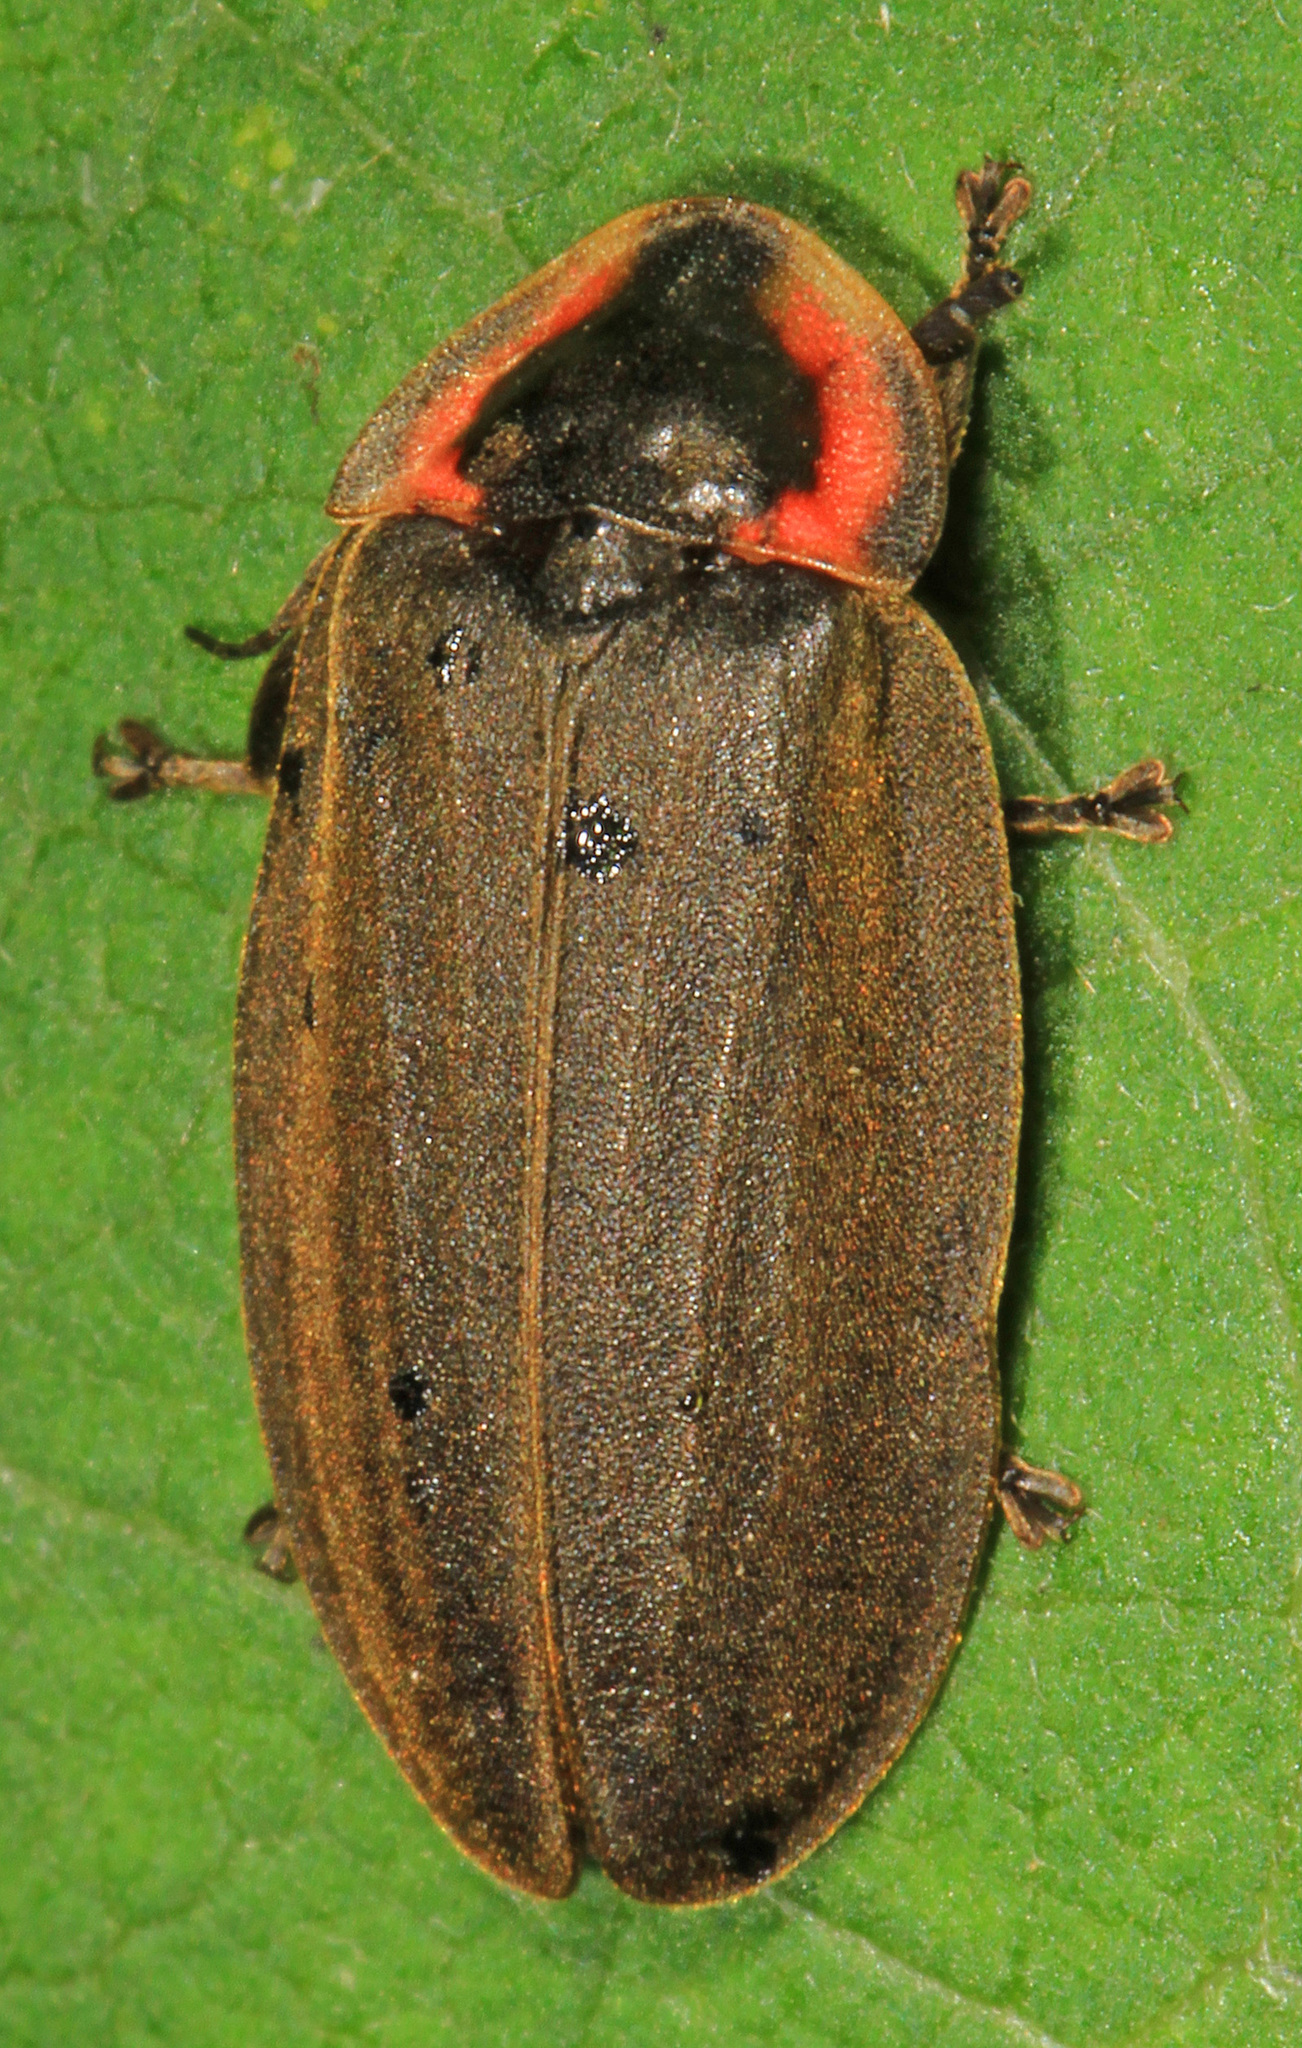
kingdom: Animalia
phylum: Arthropoda
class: Insecta
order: Coleoptera
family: Lampyridae
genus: Photinus
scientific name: Photinus corrusca
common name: Winter firefly
